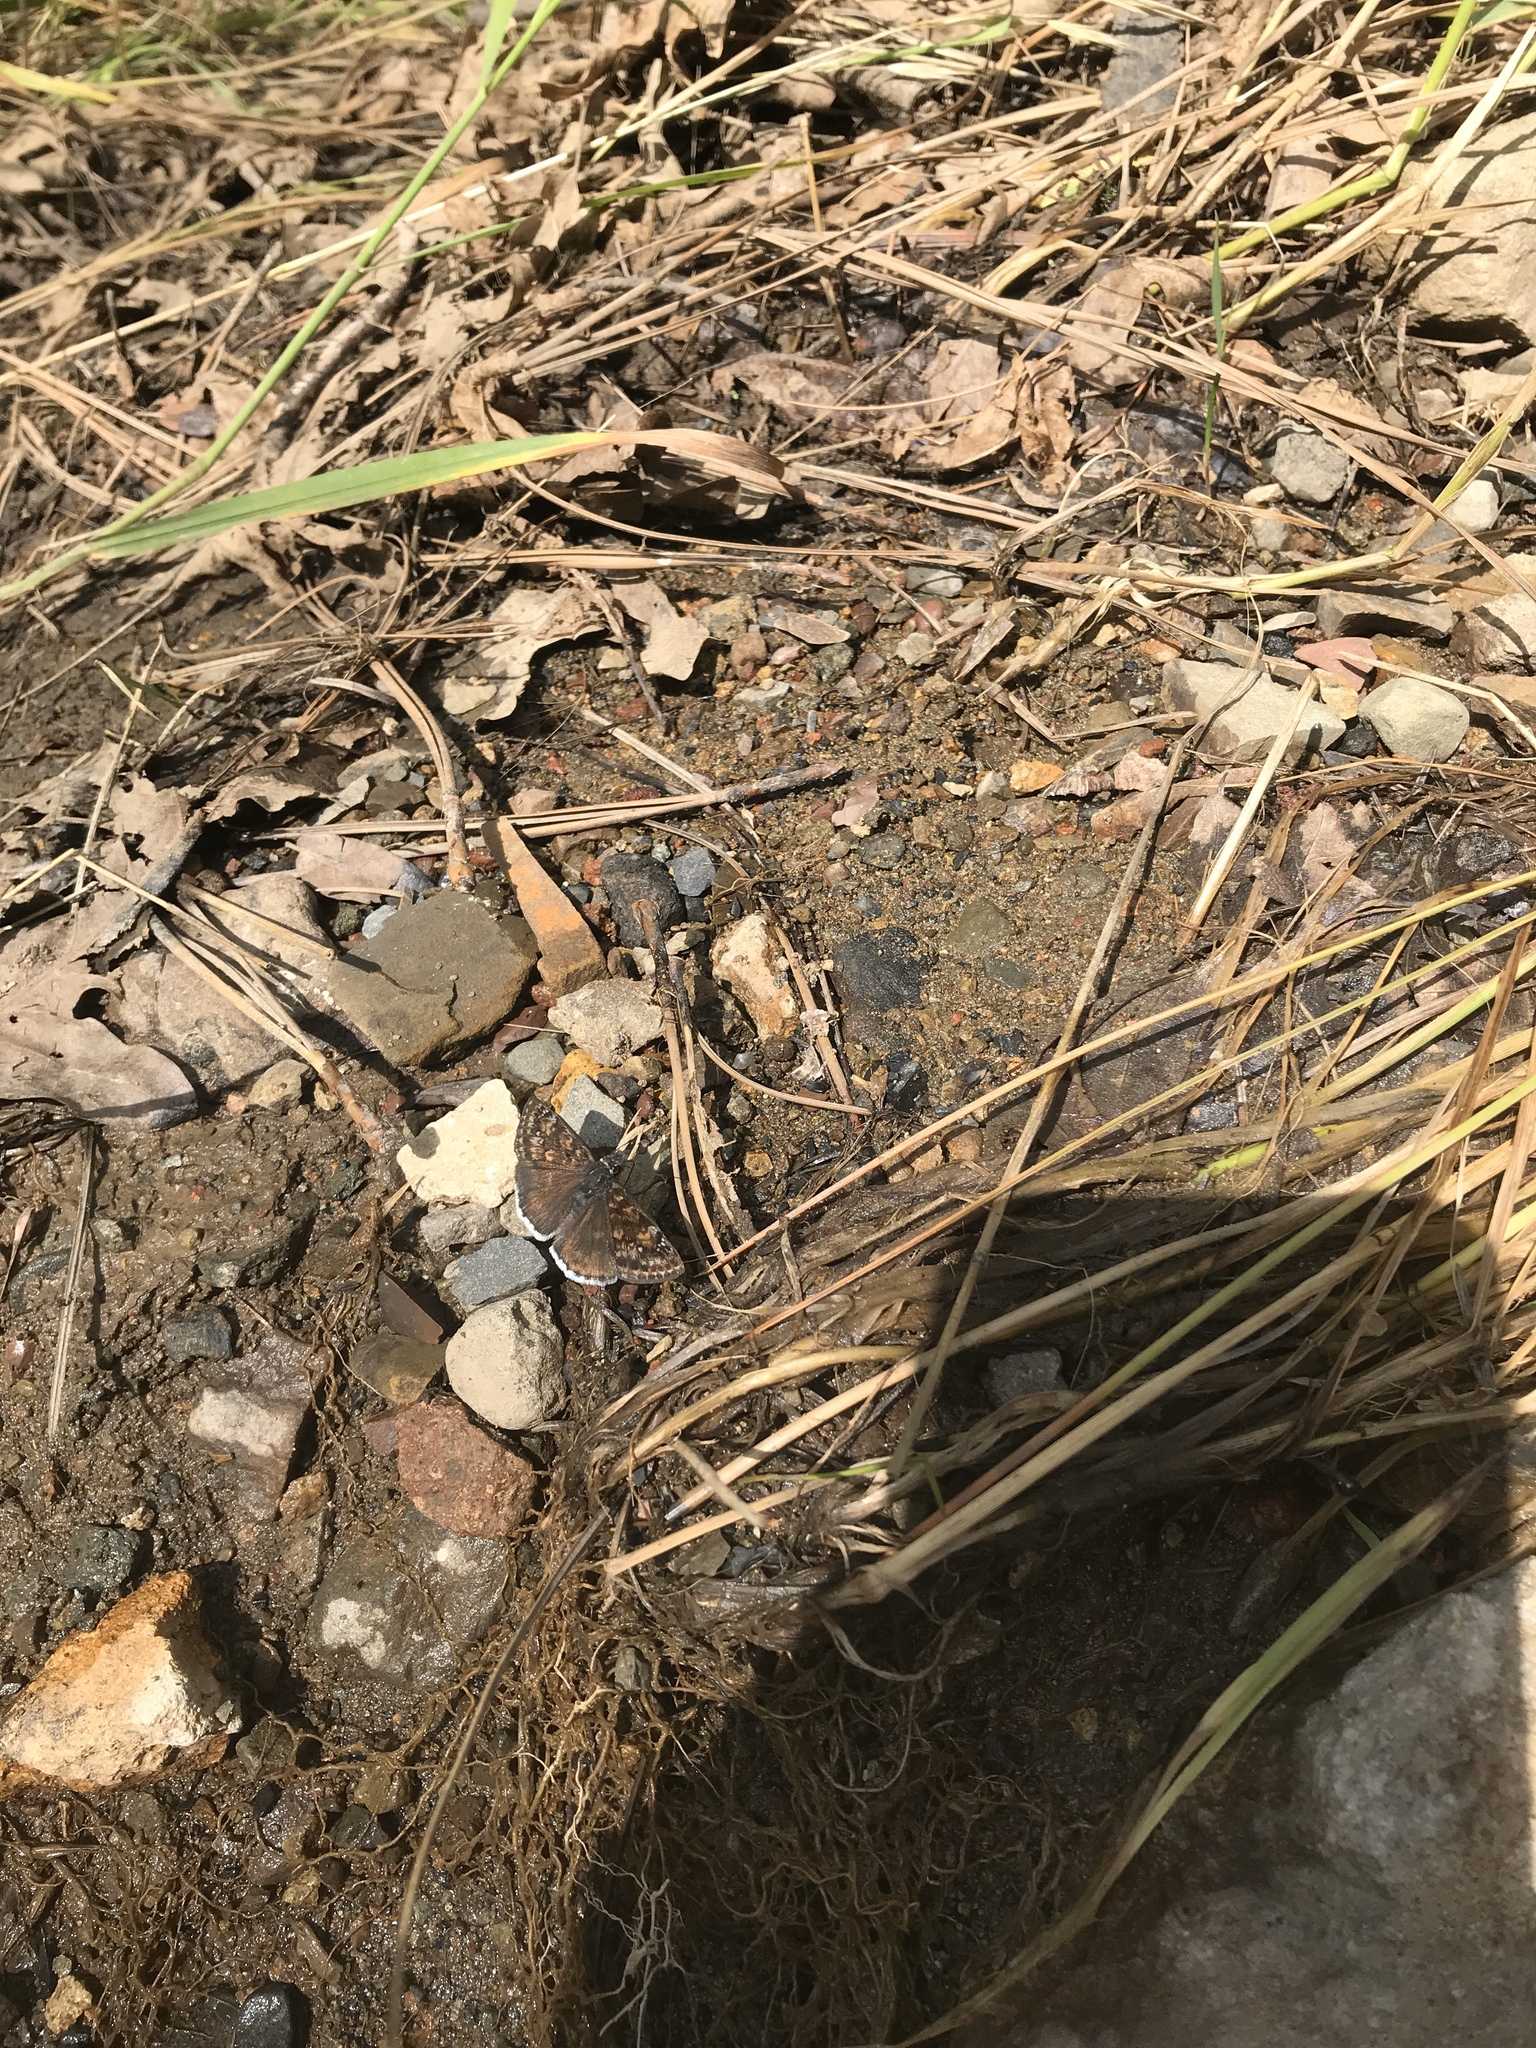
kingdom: Animalia
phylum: Arthropoda
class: Insecta
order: Lepidoptera
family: Hesperiidae
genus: Erynnis
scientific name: Erynnis pacuvius
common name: Pacuvius duskywing
